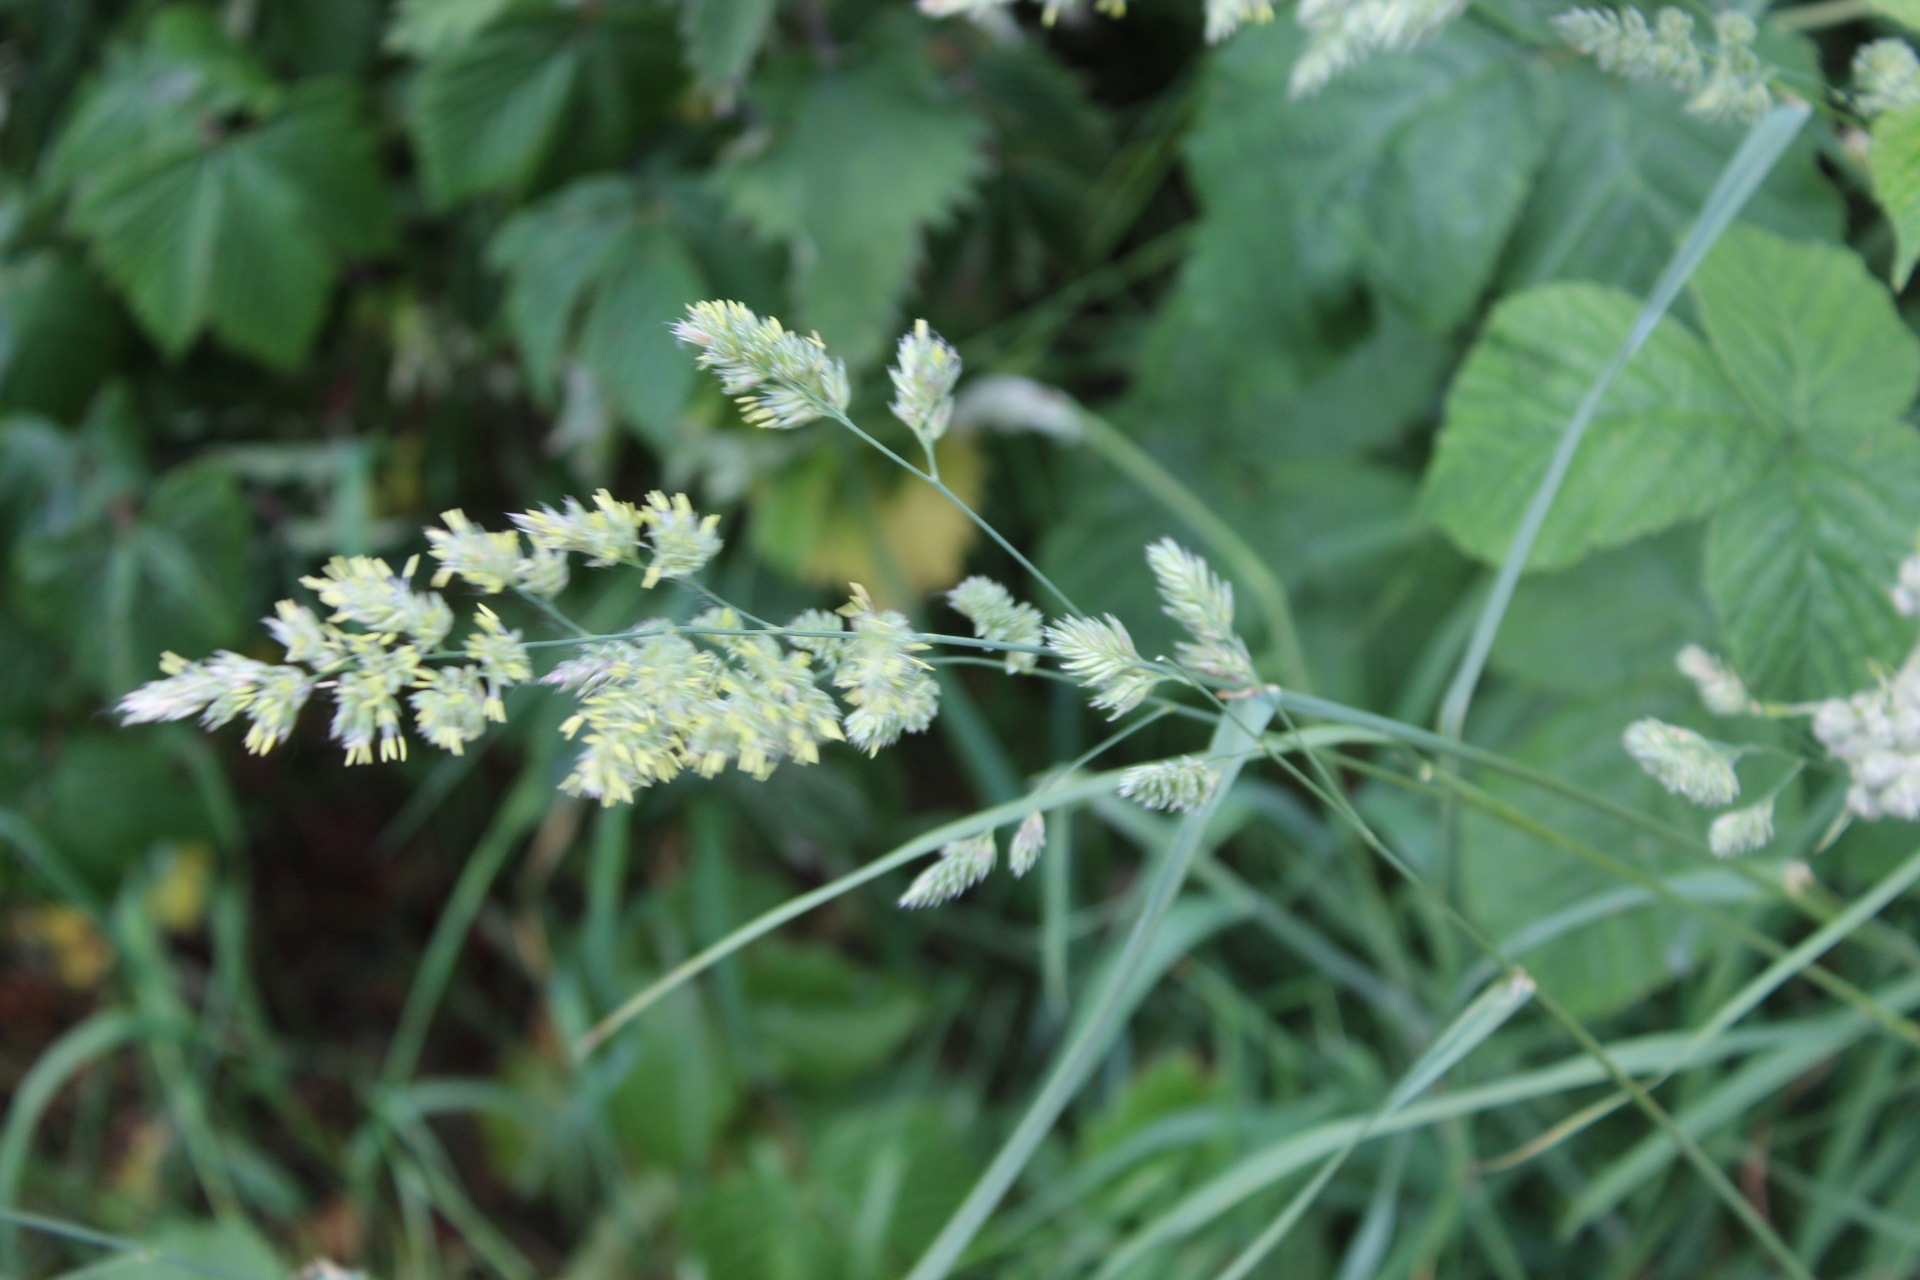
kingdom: Plantae
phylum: Tracheophyta
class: Liliopsida
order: Poales
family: Poaceae
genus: Dactylis
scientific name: Dactylis glomerata
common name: Orchardgrass
